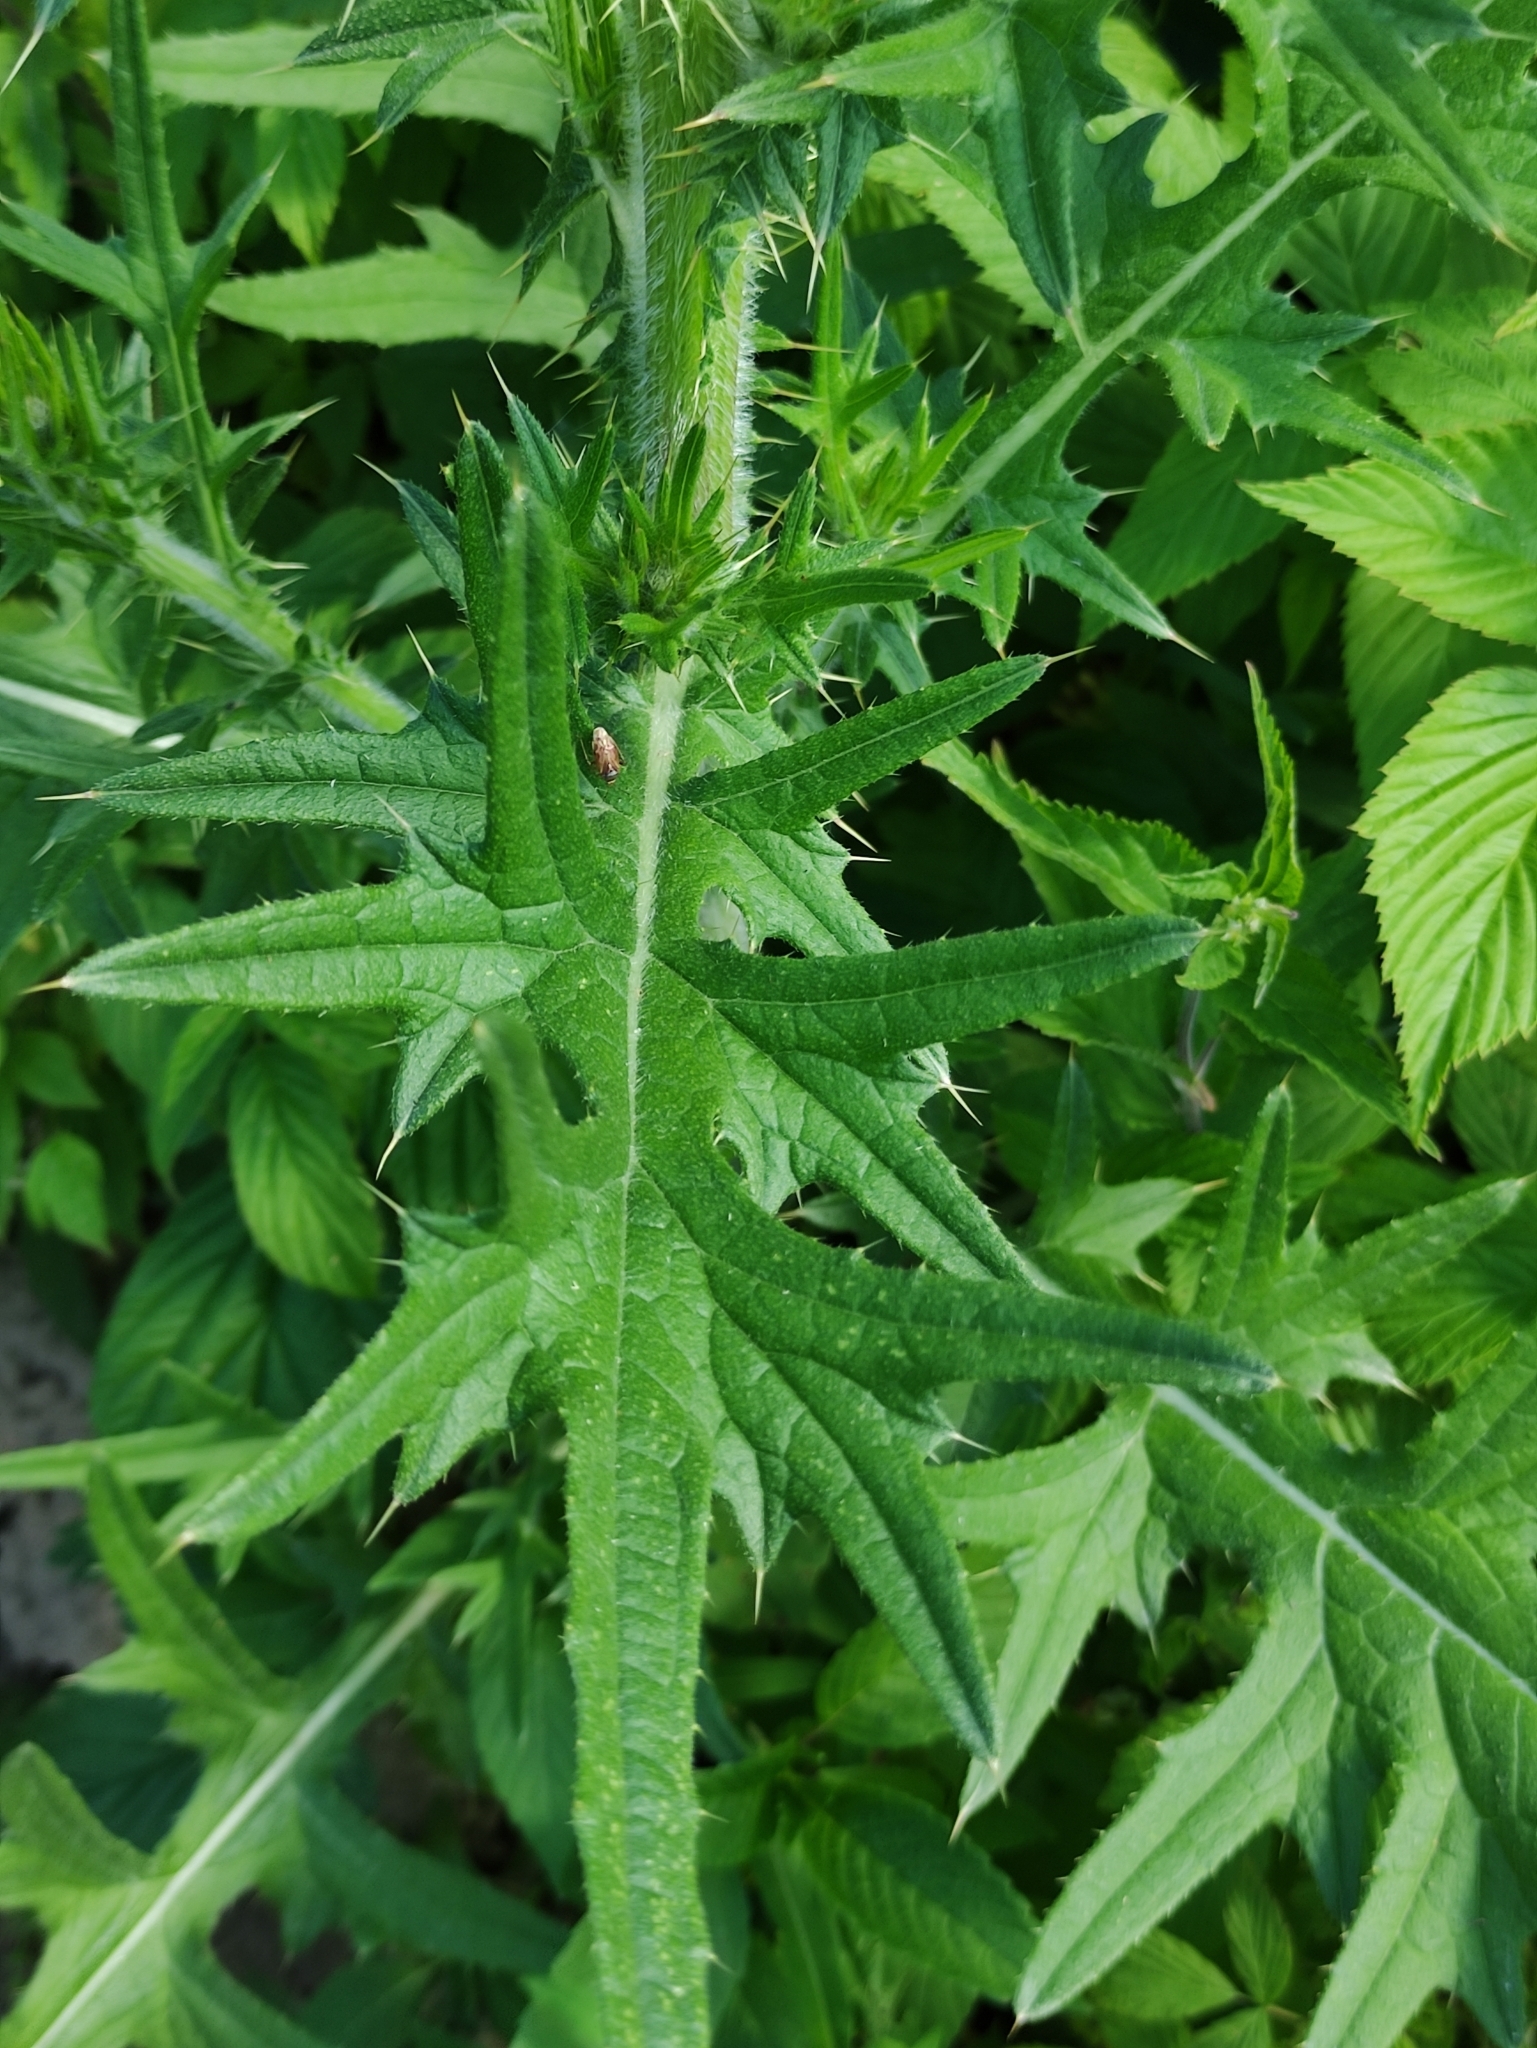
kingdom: Plantae
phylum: Tracheophyta
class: Magnoliopsida
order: Asterales
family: Asteraceae
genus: Cirsium
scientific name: Cirsium vulgare
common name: Bull thistle
